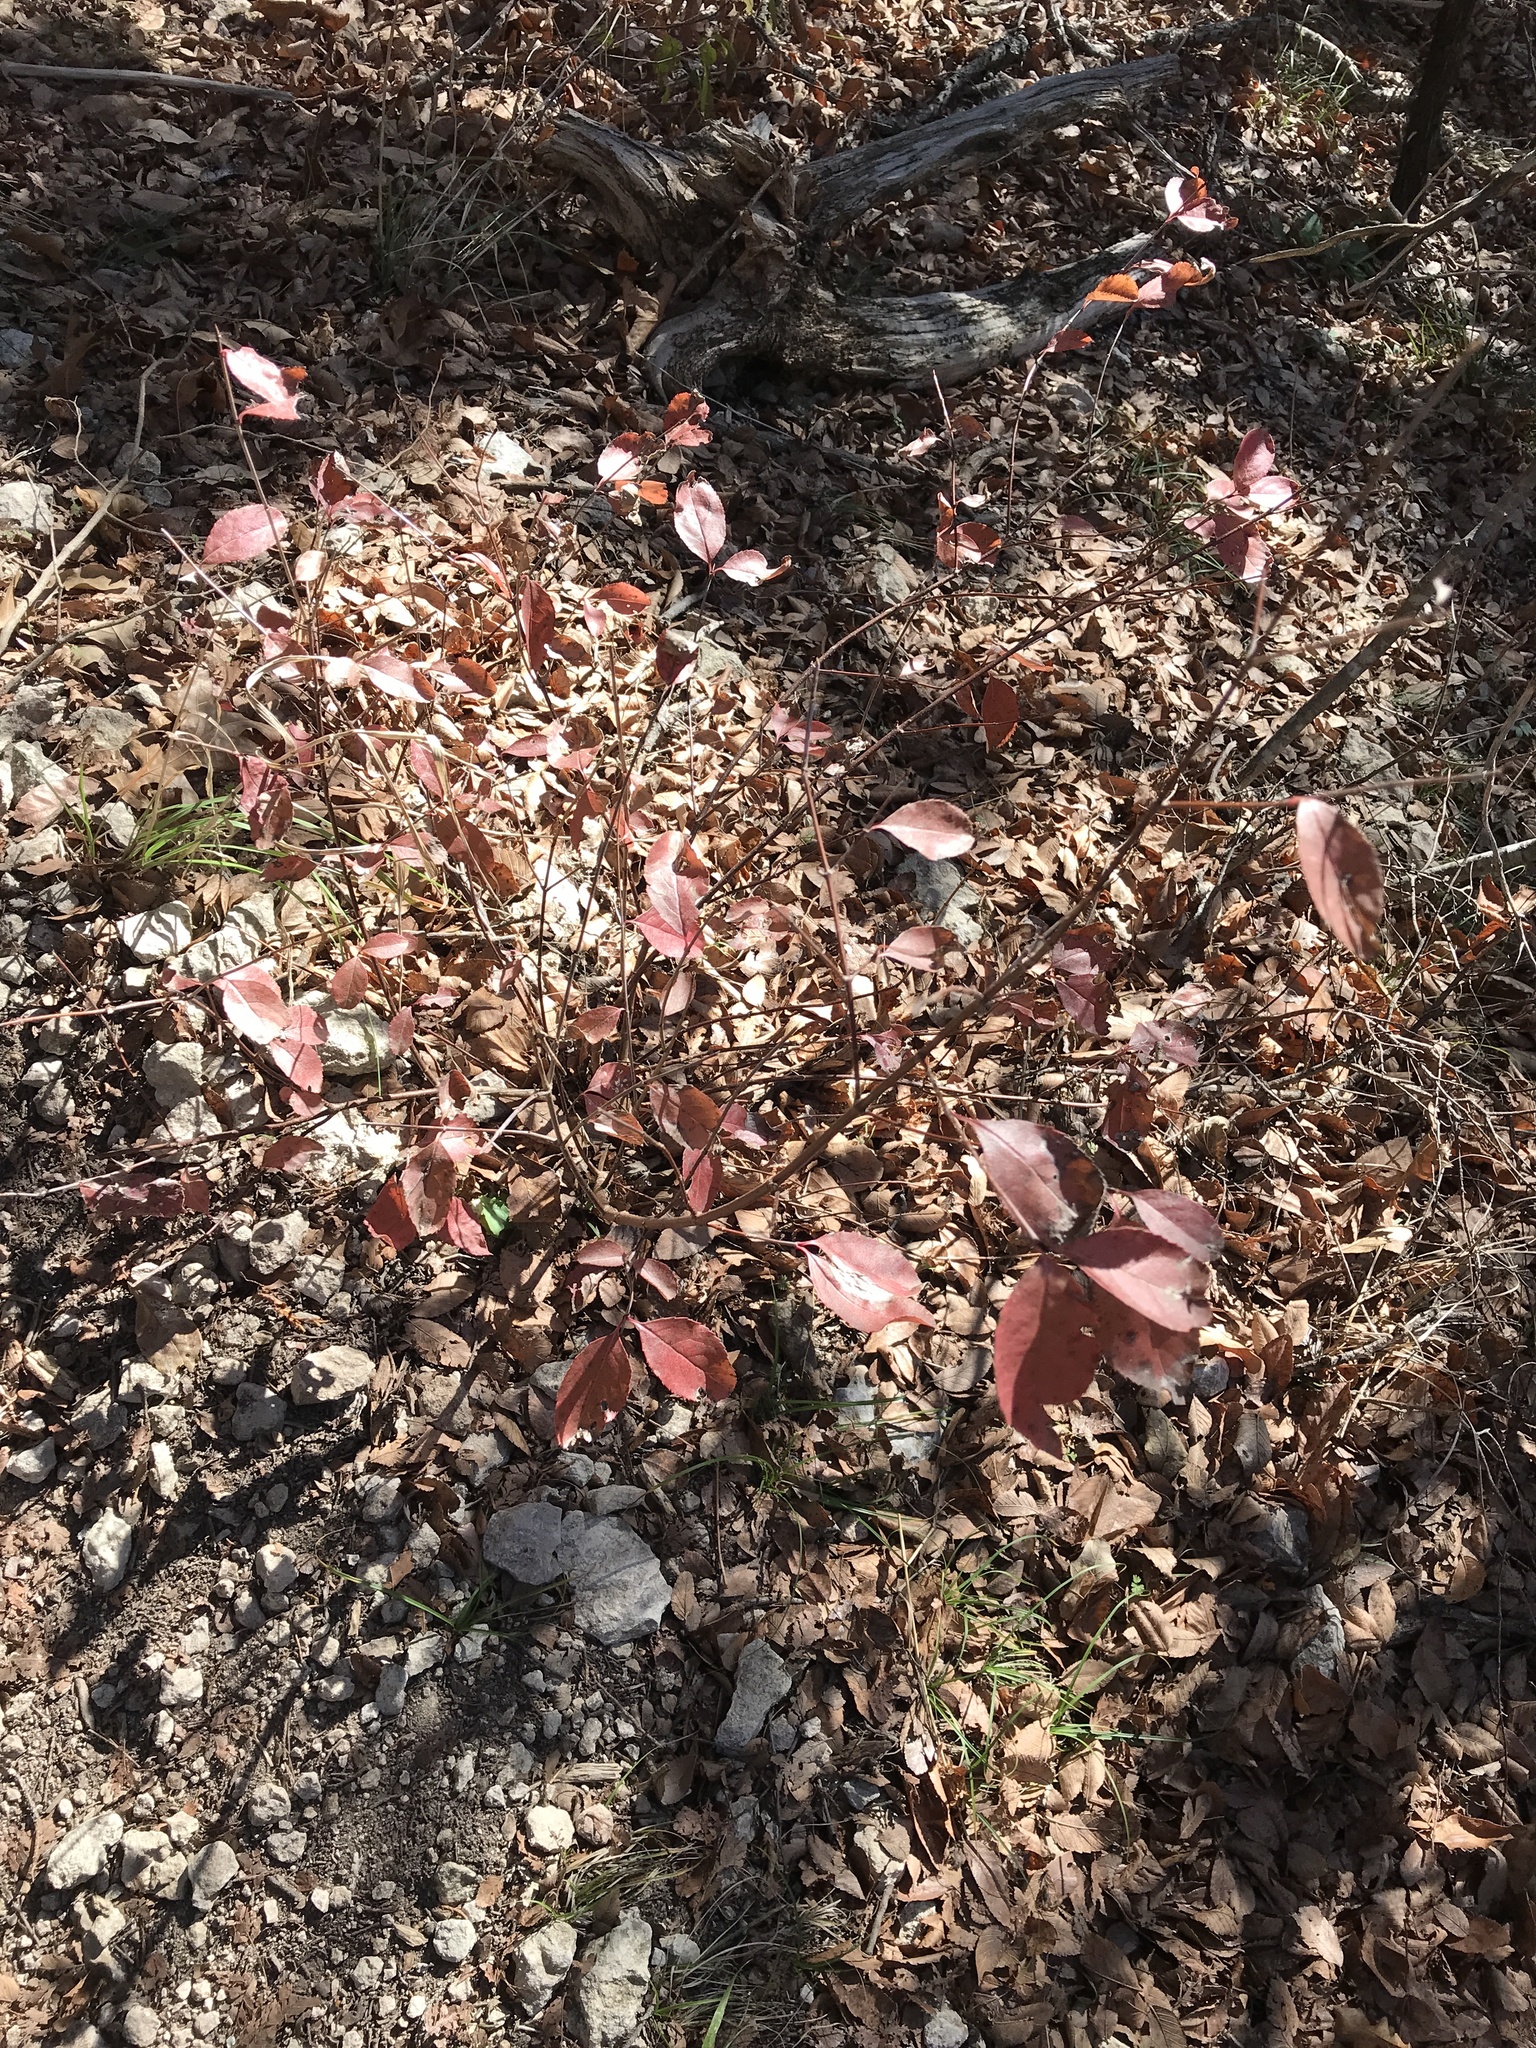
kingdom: Plantae
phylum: Tracheophyta
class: Magnoliopsida
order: Dipsacales
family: Viburnaceae
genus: Viburnum
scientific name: Viburnum rufidulum
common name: Blue haw
